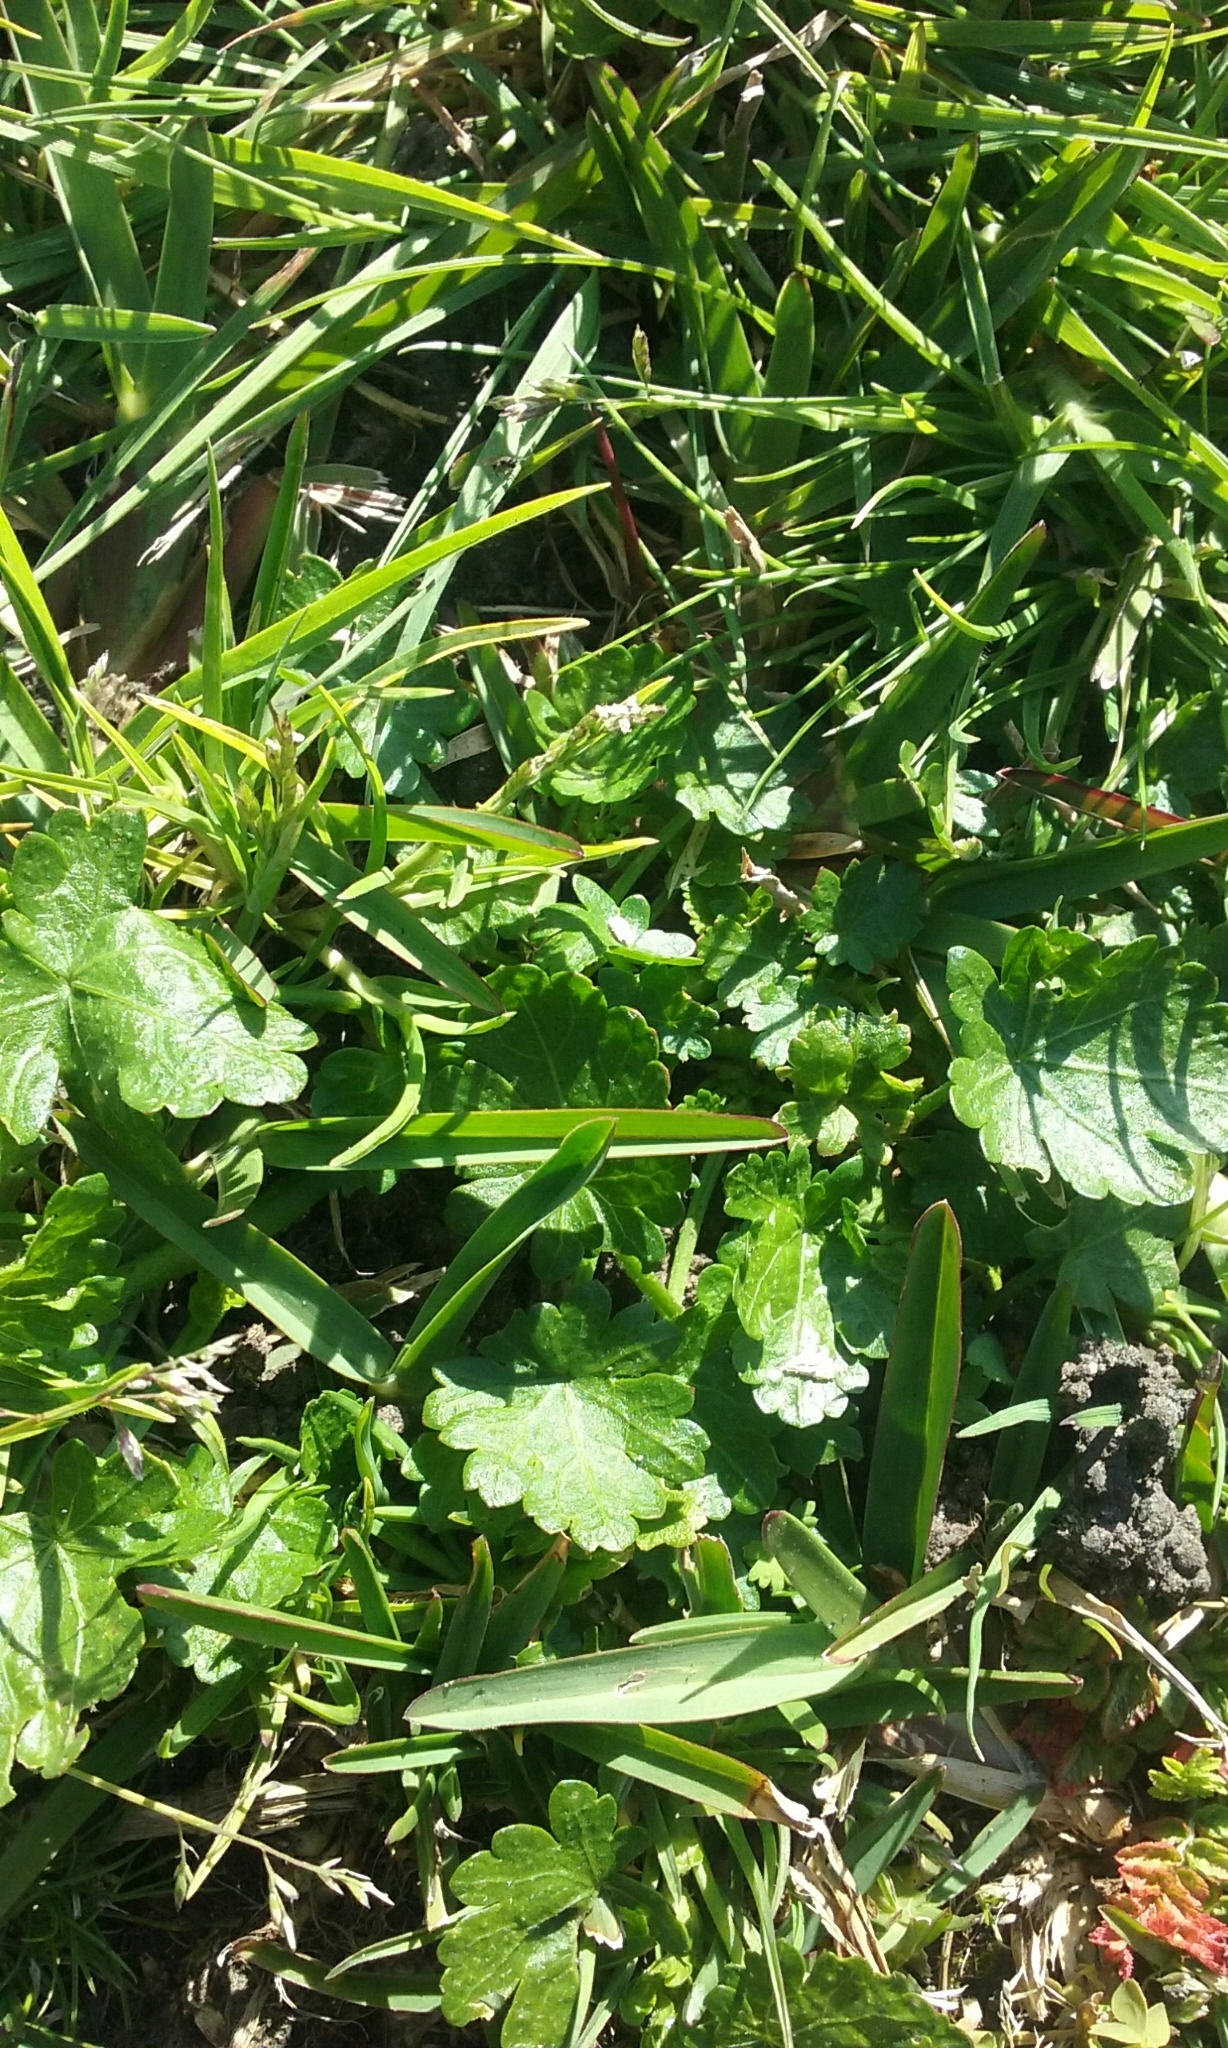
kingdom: Plantae
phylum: Tracheophyta
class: Magnoliopsida
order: Malvales
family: Malvaceae
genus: Modiola
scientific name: Modiola caroliniana
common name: Carolina bristlemallow
